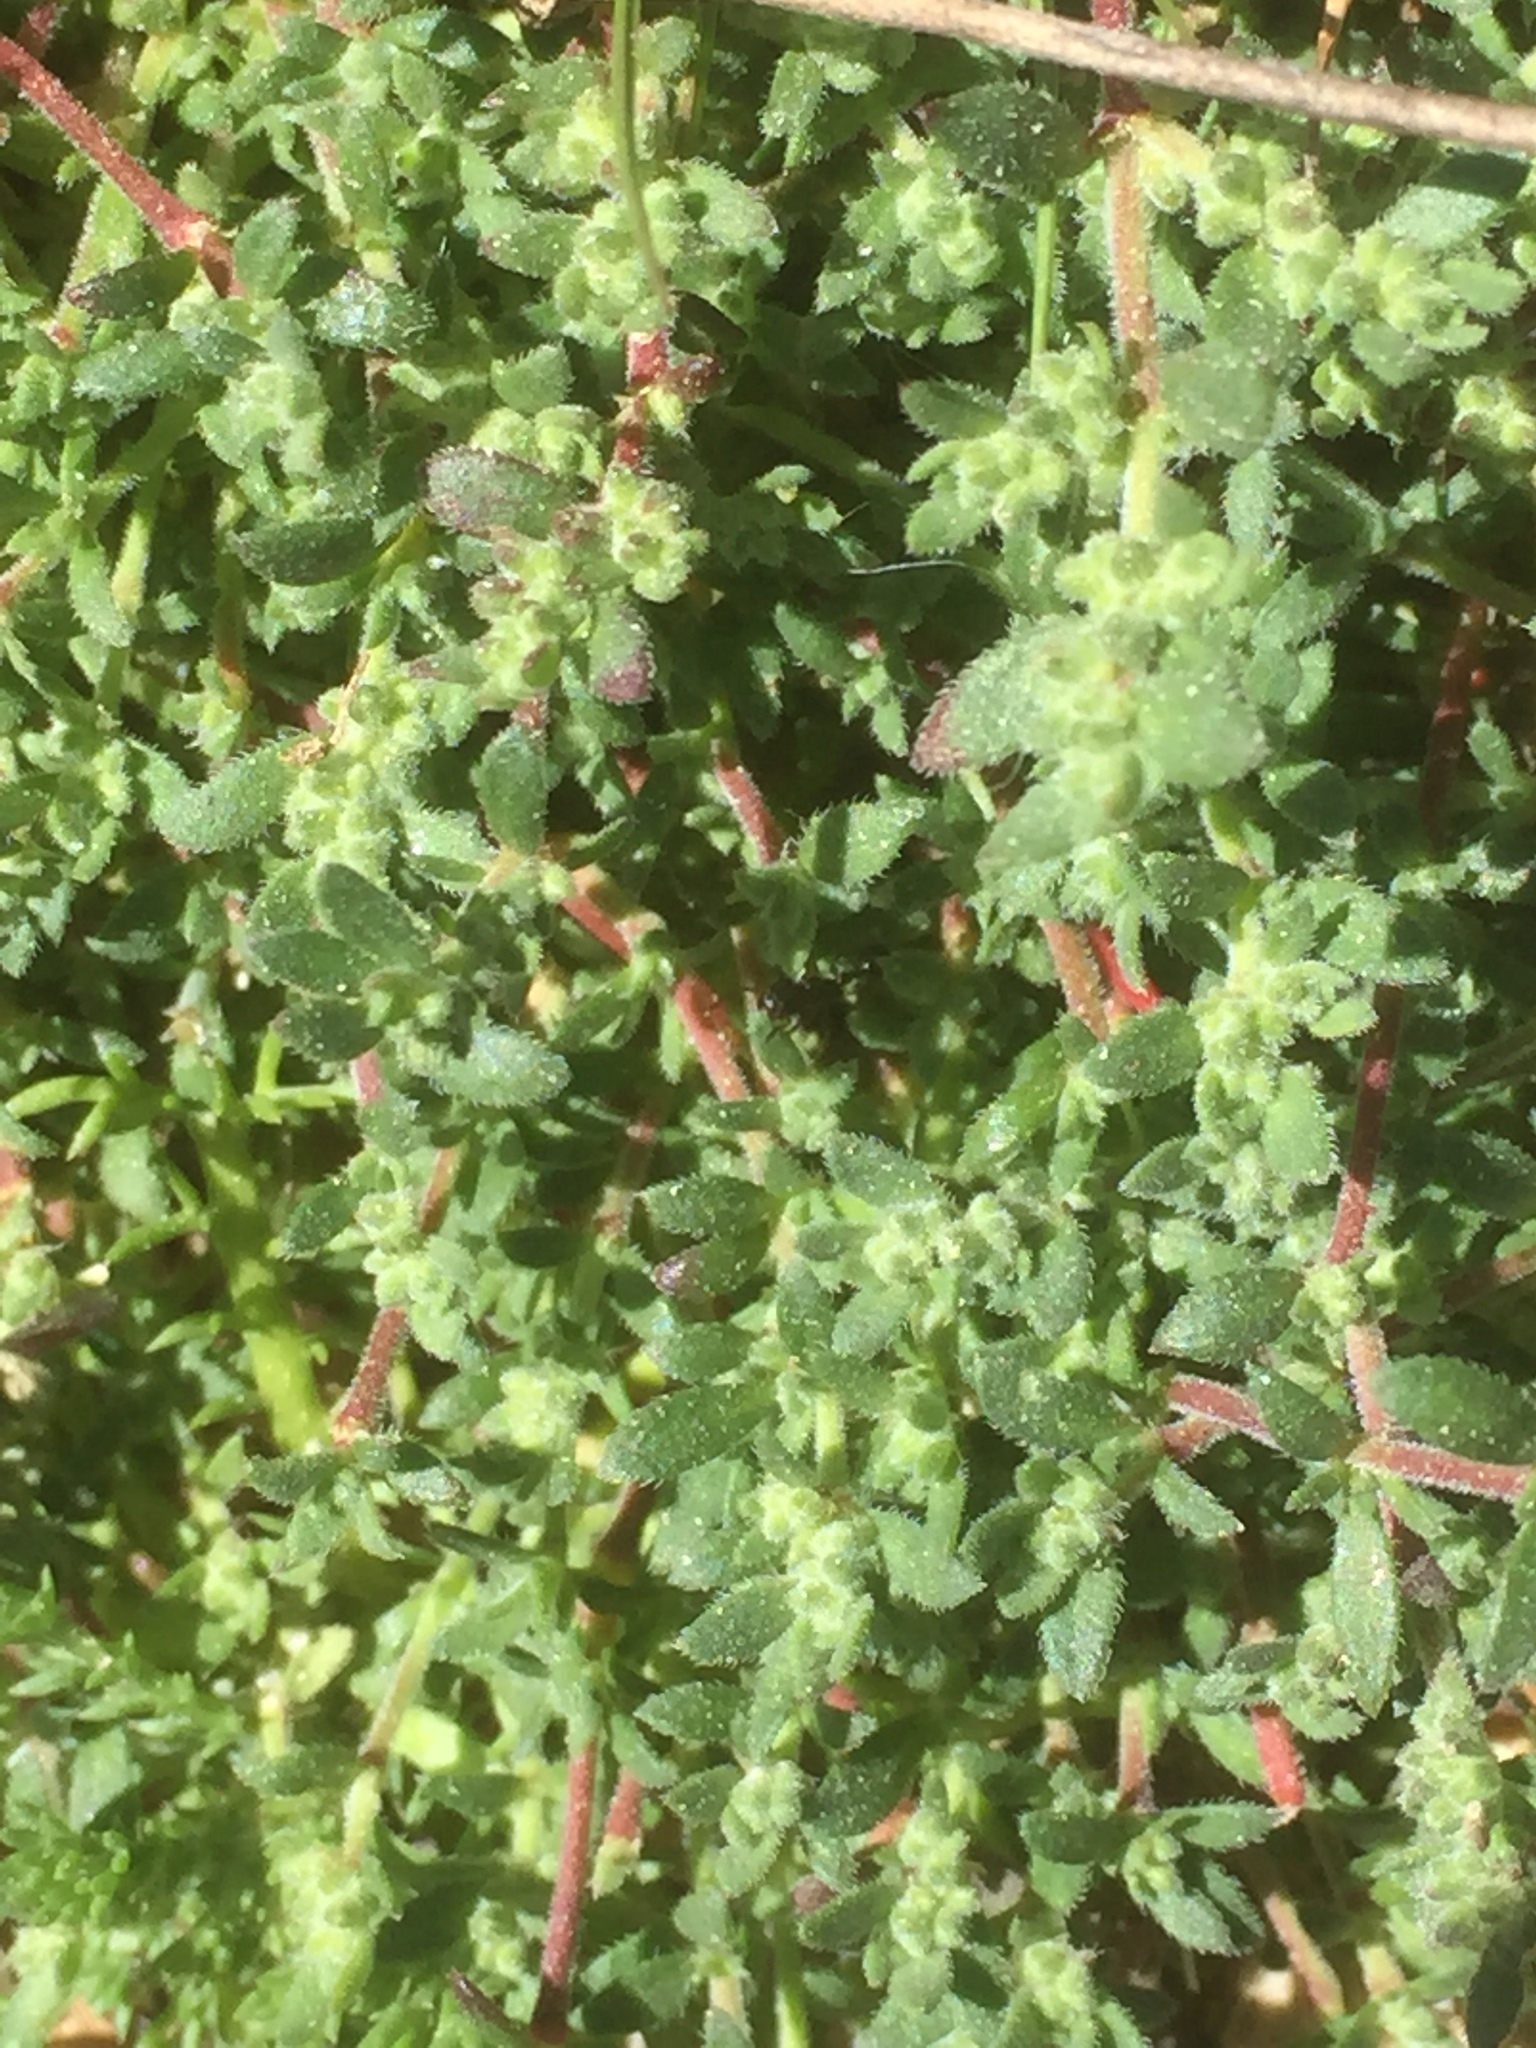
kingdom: Plantae
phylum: Tracheophyta
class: Magnoliopsida
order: Caryophyllales
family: Caryophyllaceae
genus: Herniaria
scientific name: Herniaria hirsuta
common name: Hairy rupturewort
